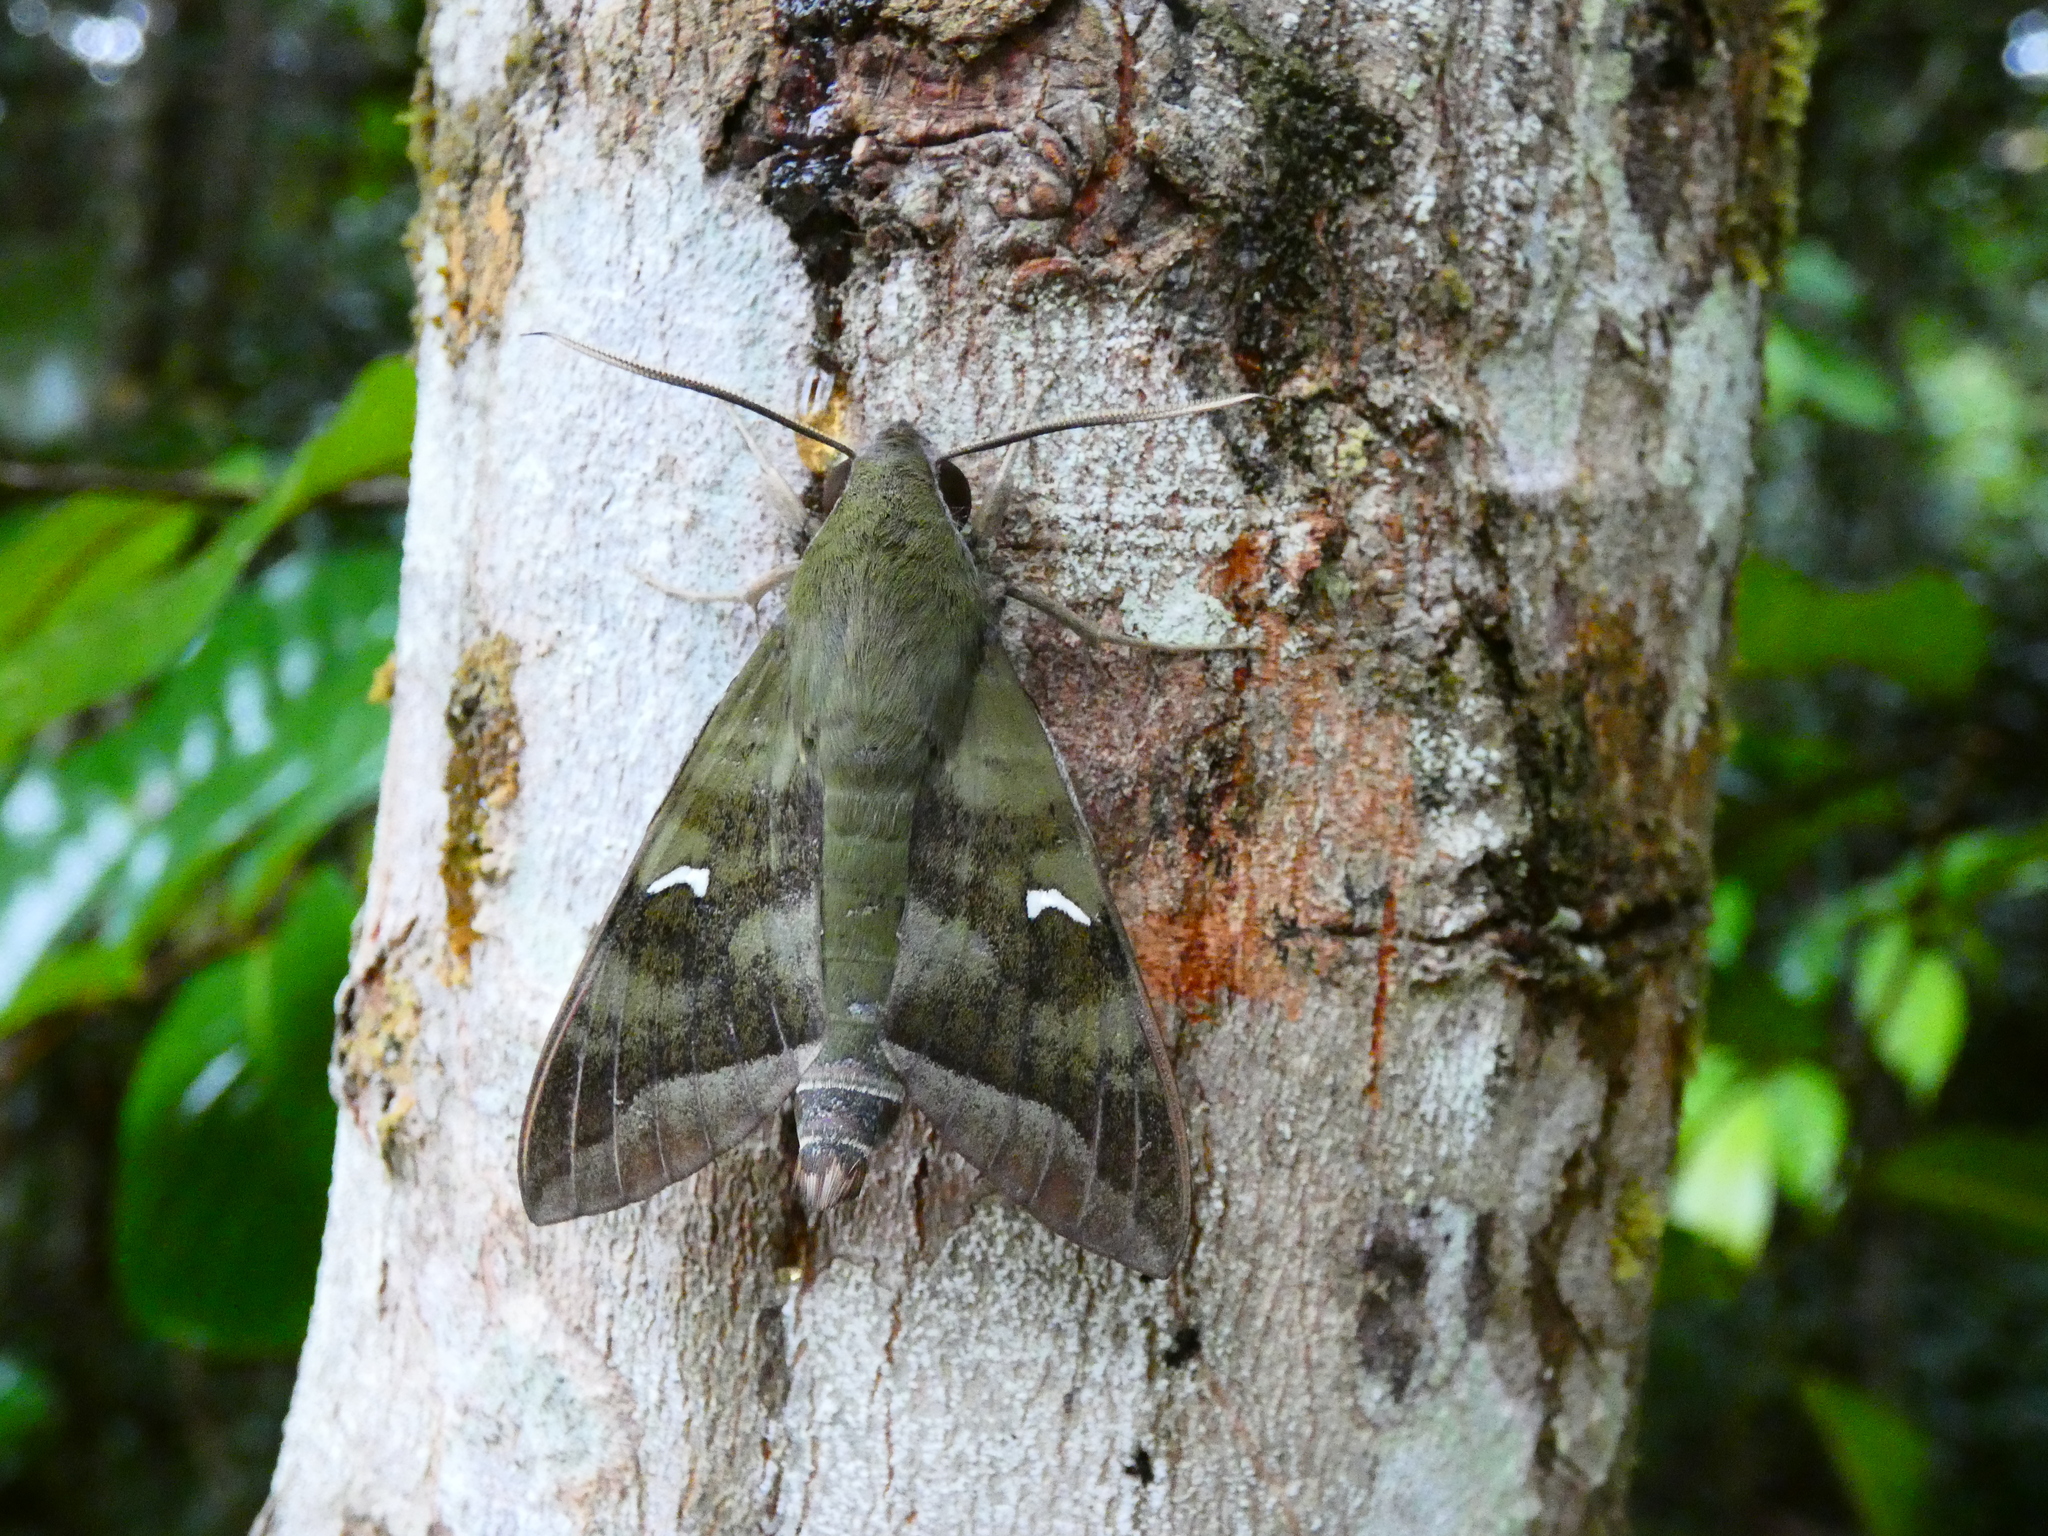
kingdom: Animalia
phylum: Arthropoda
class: Insecta
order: Lepidoptera
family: Sphingidae
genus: Nephele
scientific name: Nephele comma
